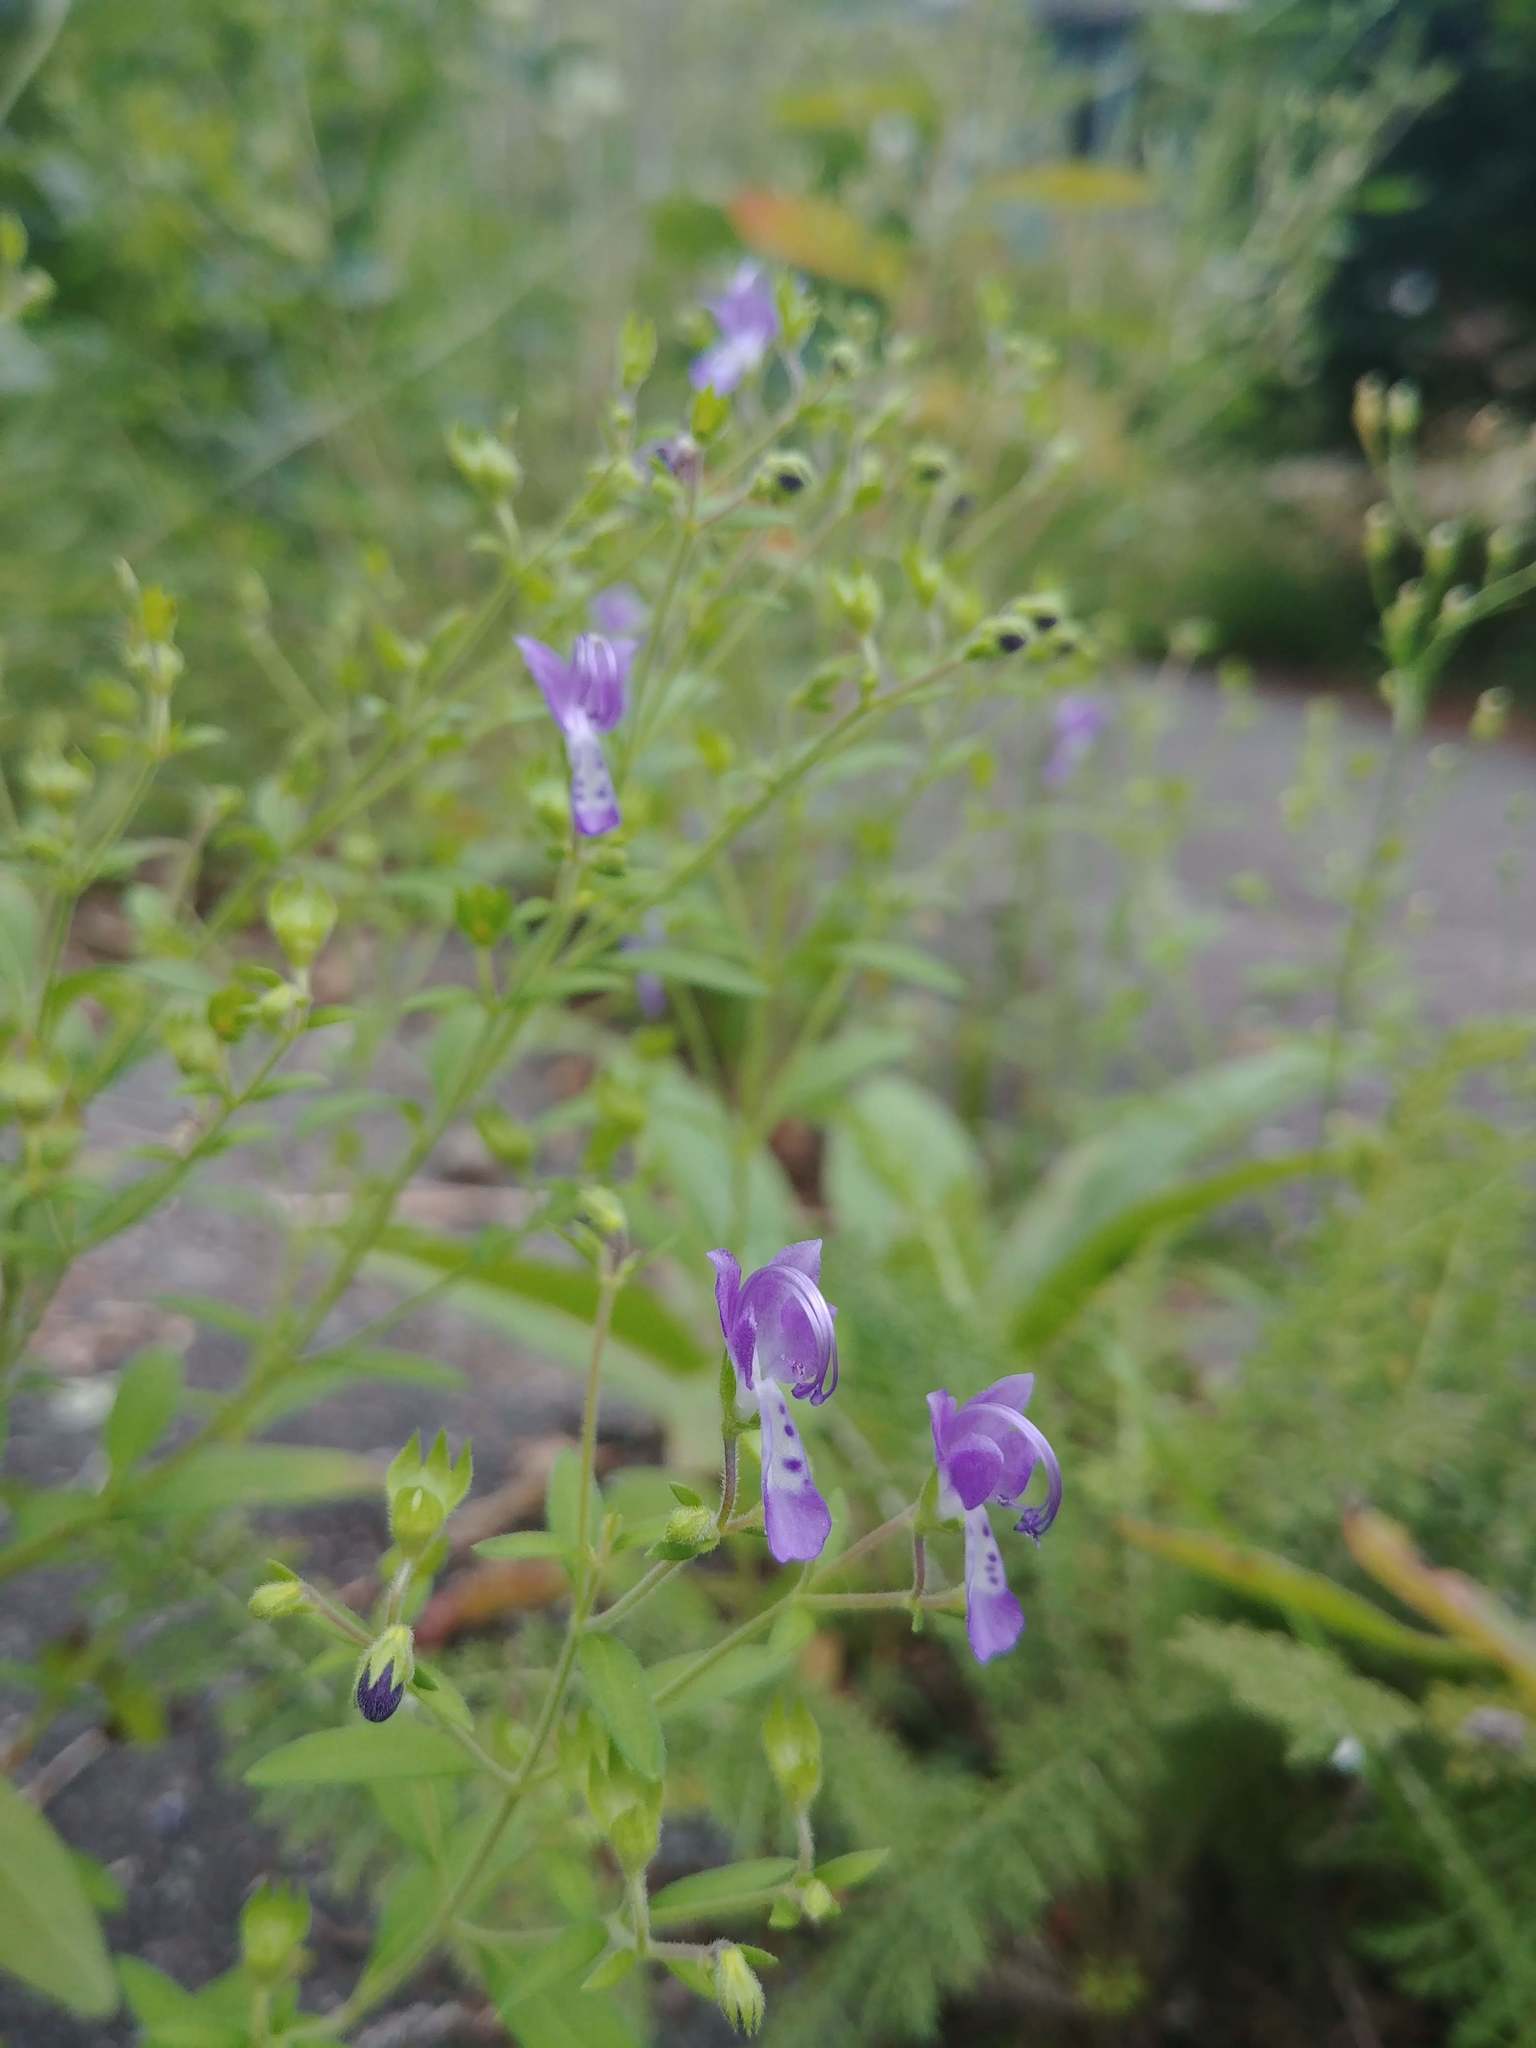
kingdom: Plantae
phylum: Tracheophyta
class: Magnoliopsida
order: Lamiales
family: Lamiaceae
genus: Trichostema
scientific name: Trichostema dichotomum
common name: Bastard pennyroyal
